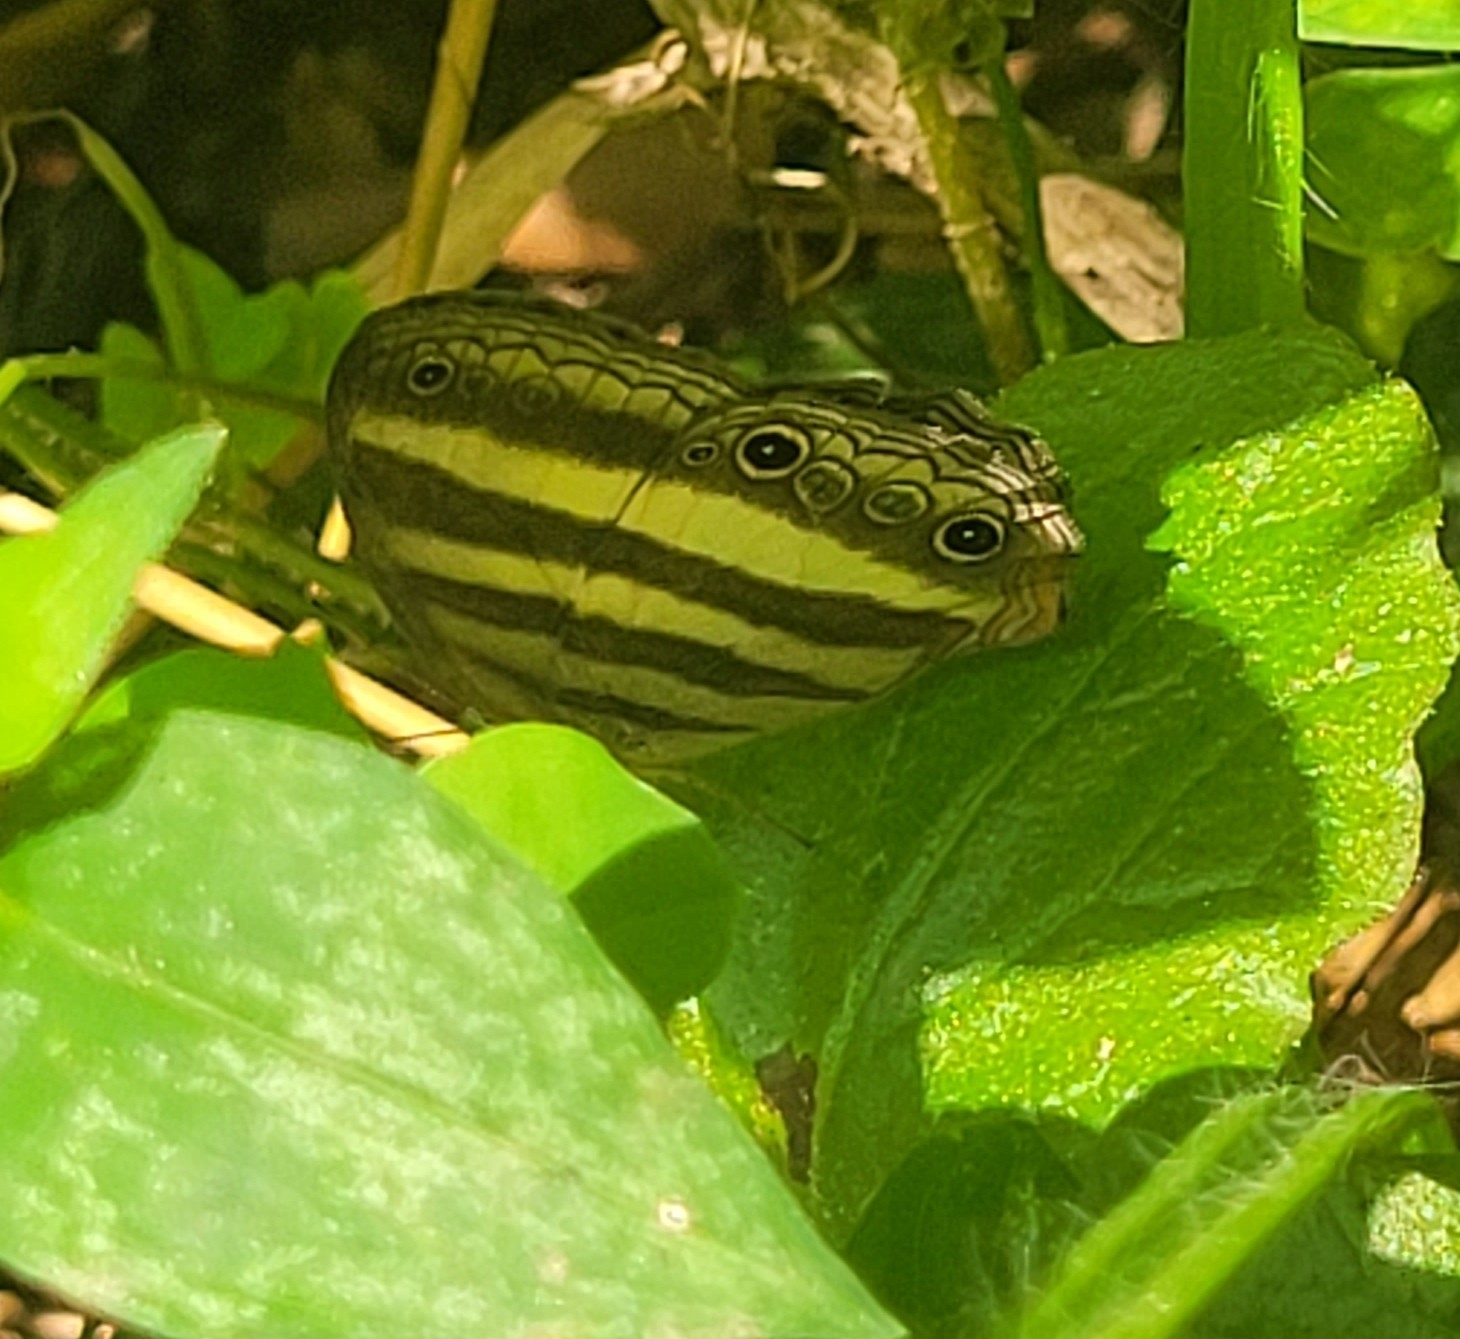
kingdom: Animalia
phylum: Arthropoda
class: Insecta
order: Lepidoptera
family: Nymphalidae
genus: Pareuptychia
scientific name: Pareuptychia hesione
